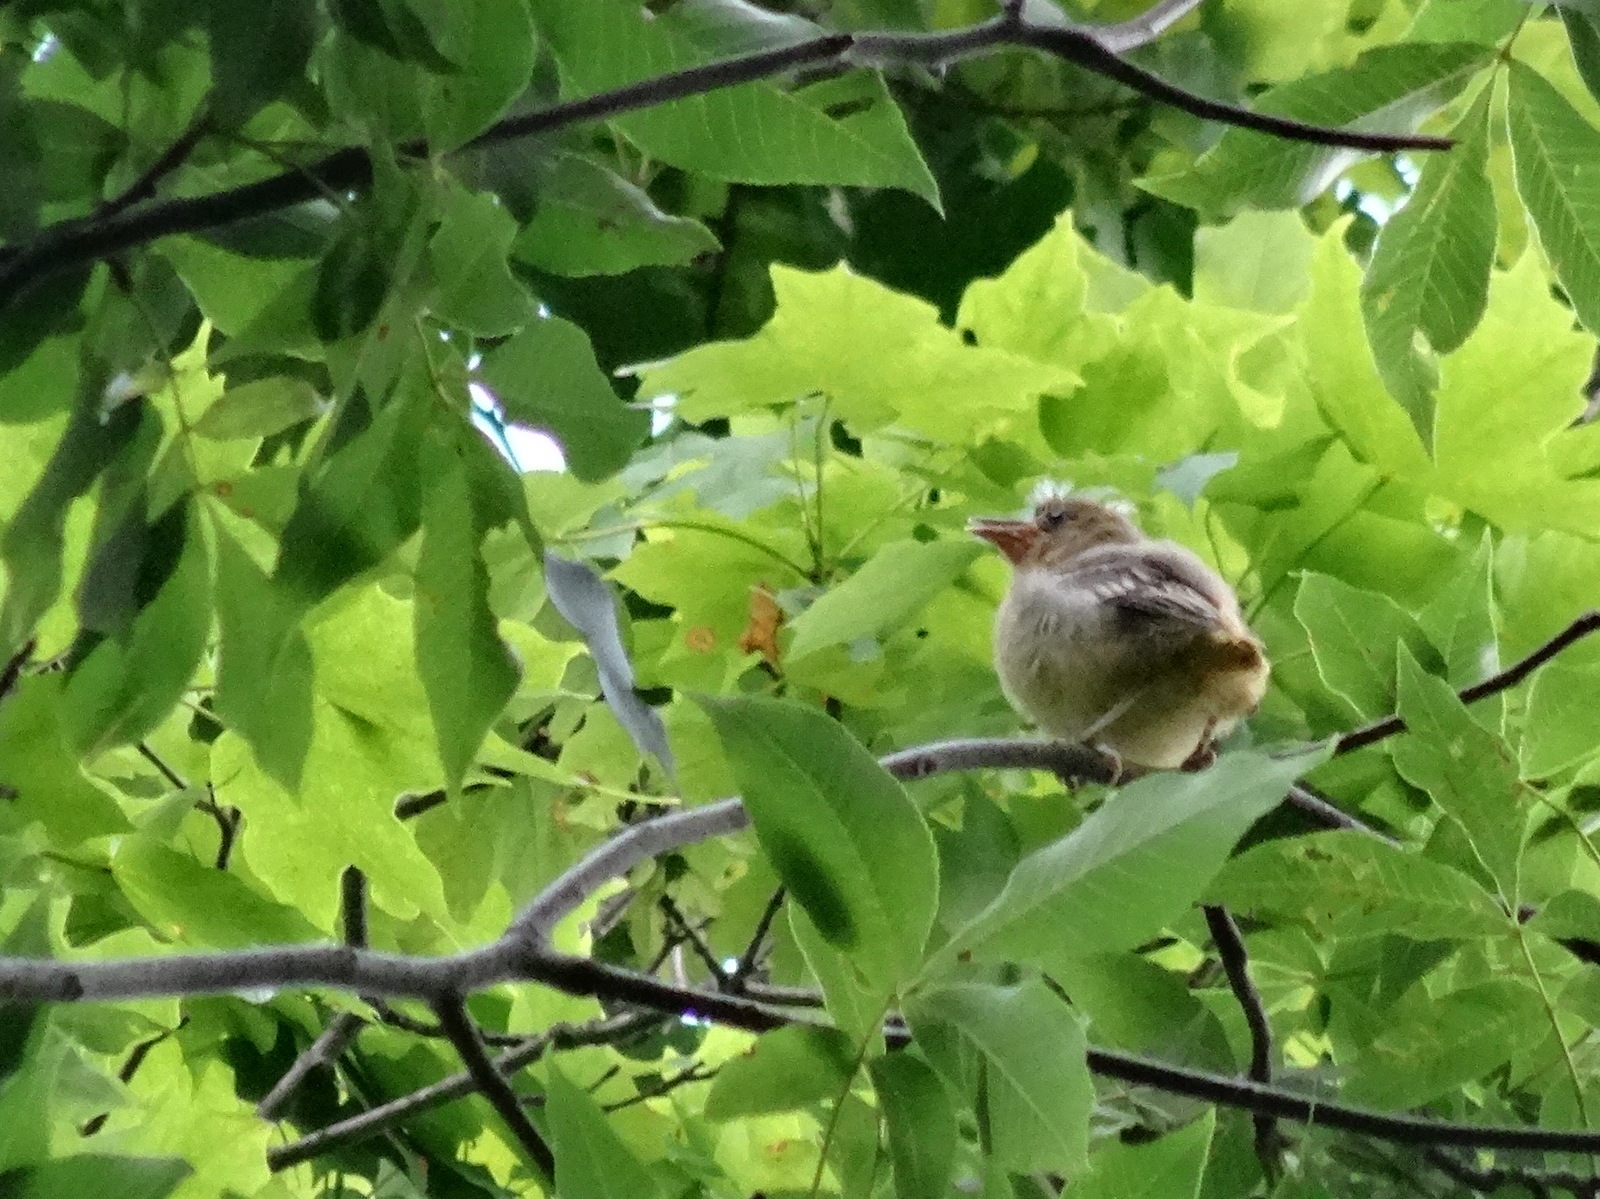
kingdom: Animalia
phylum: Chordata
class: Aves
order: Passeriformes
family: Icteridae
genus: Icterus
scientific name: Icterus galbula
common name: Baltimore oriole
